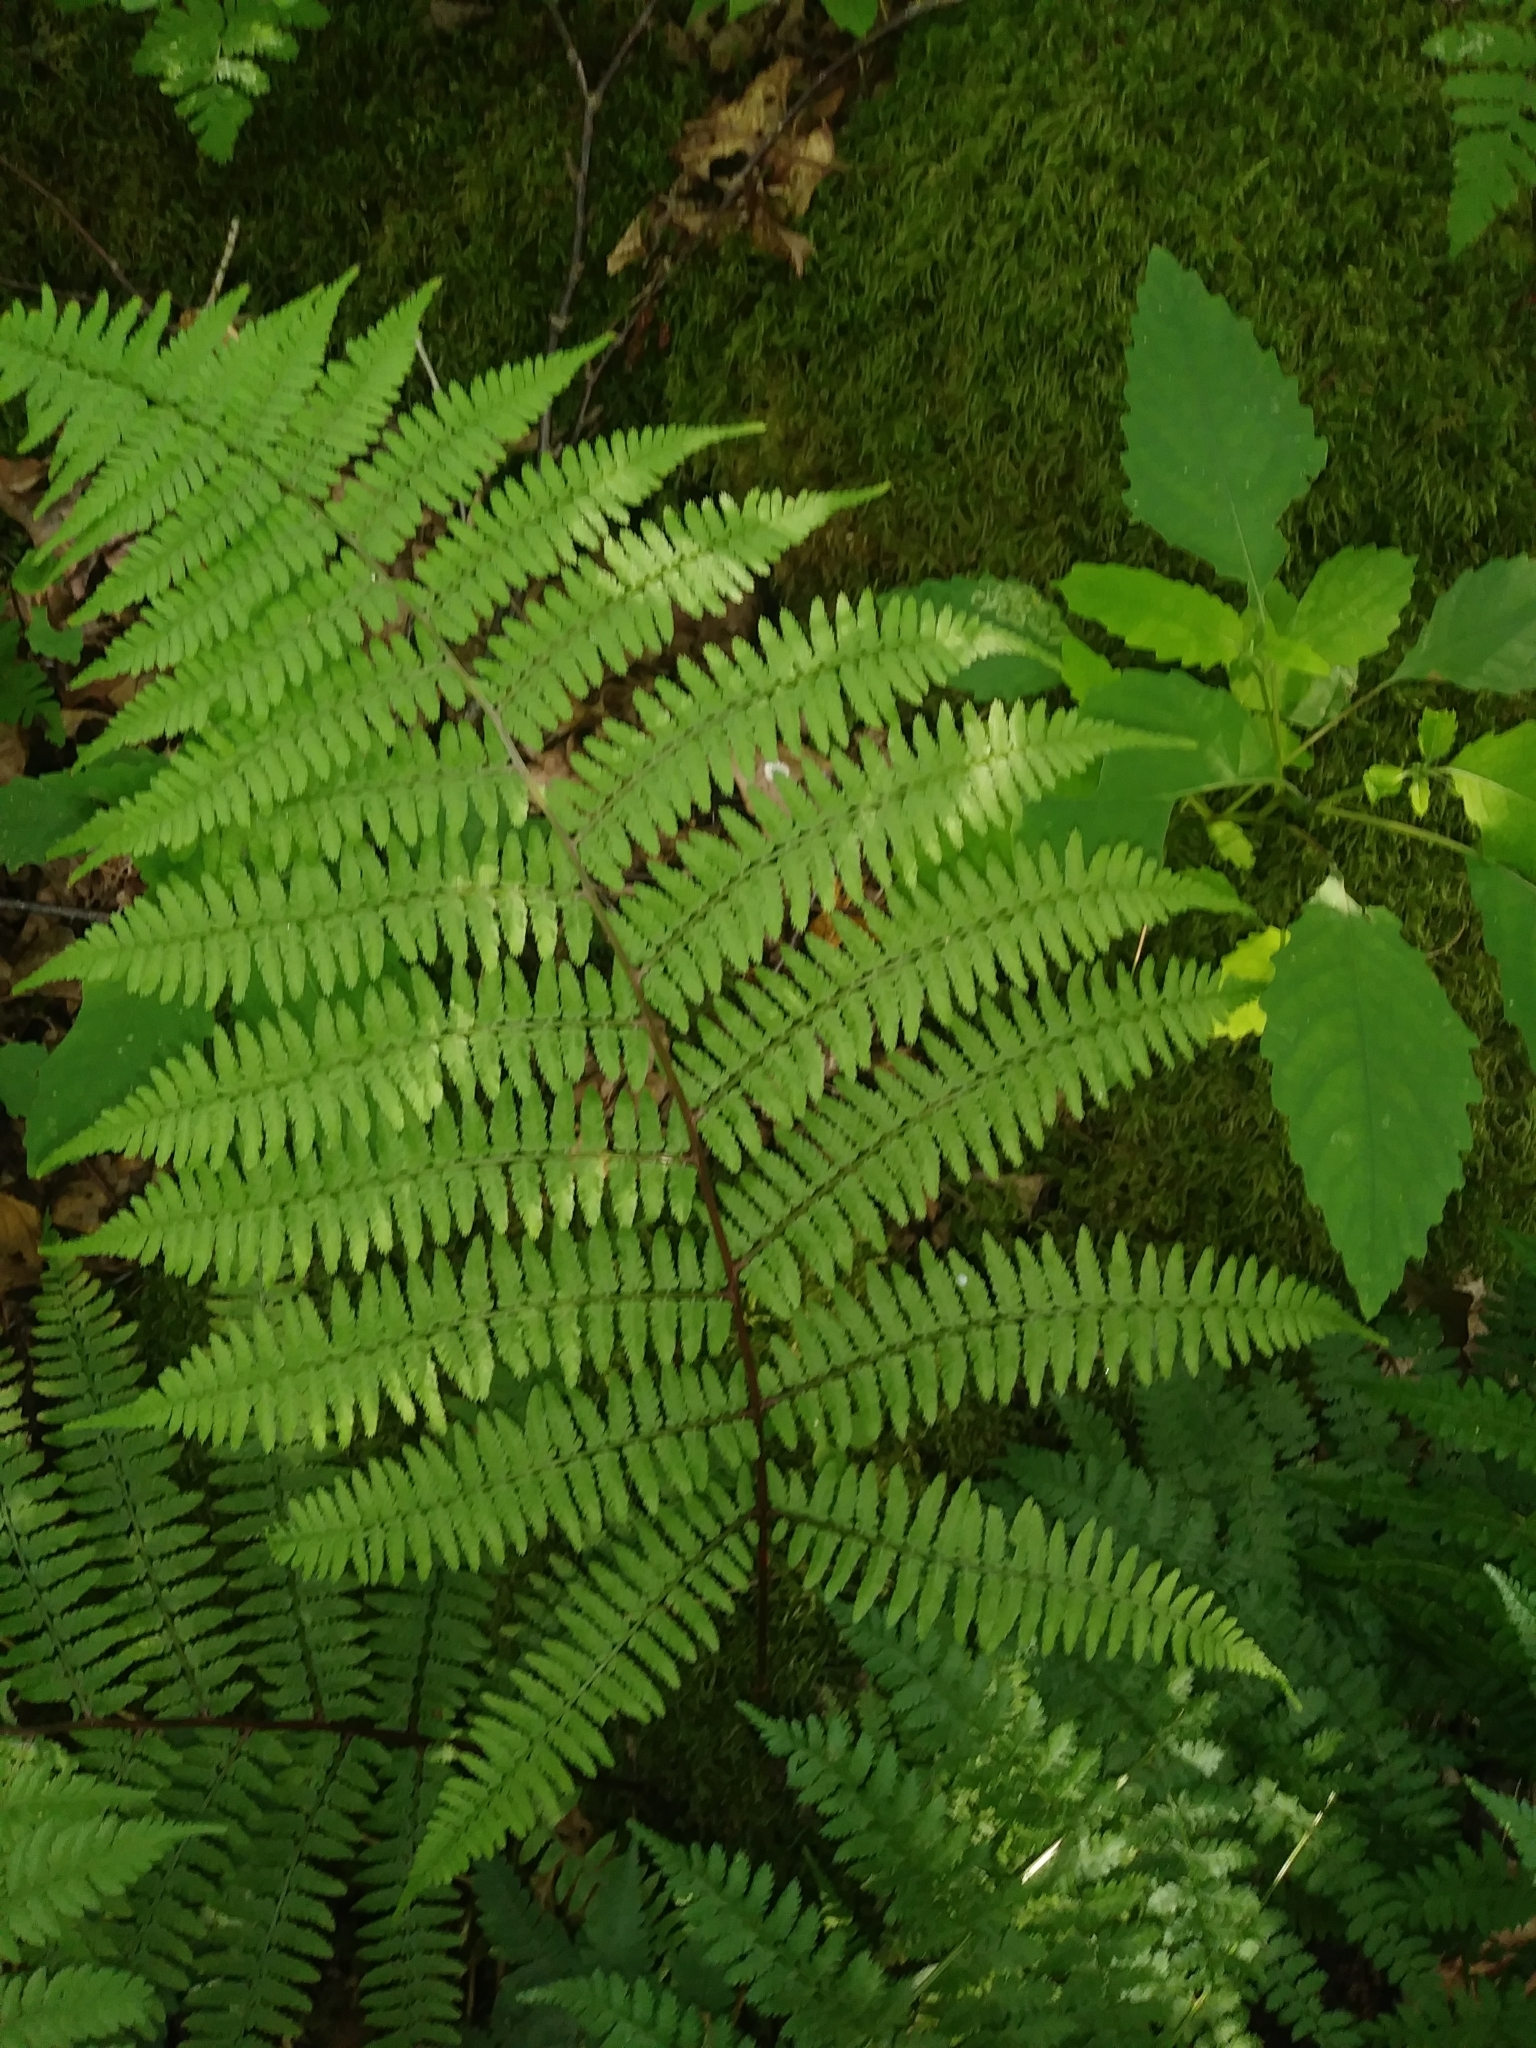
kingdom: Plantae
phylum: Tracheophyta
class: Polypodiopsida
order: Polypodiales
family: Athyriaceae
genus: Athyrium
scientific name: Athyrium asplenioides
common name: Southern lady fern
